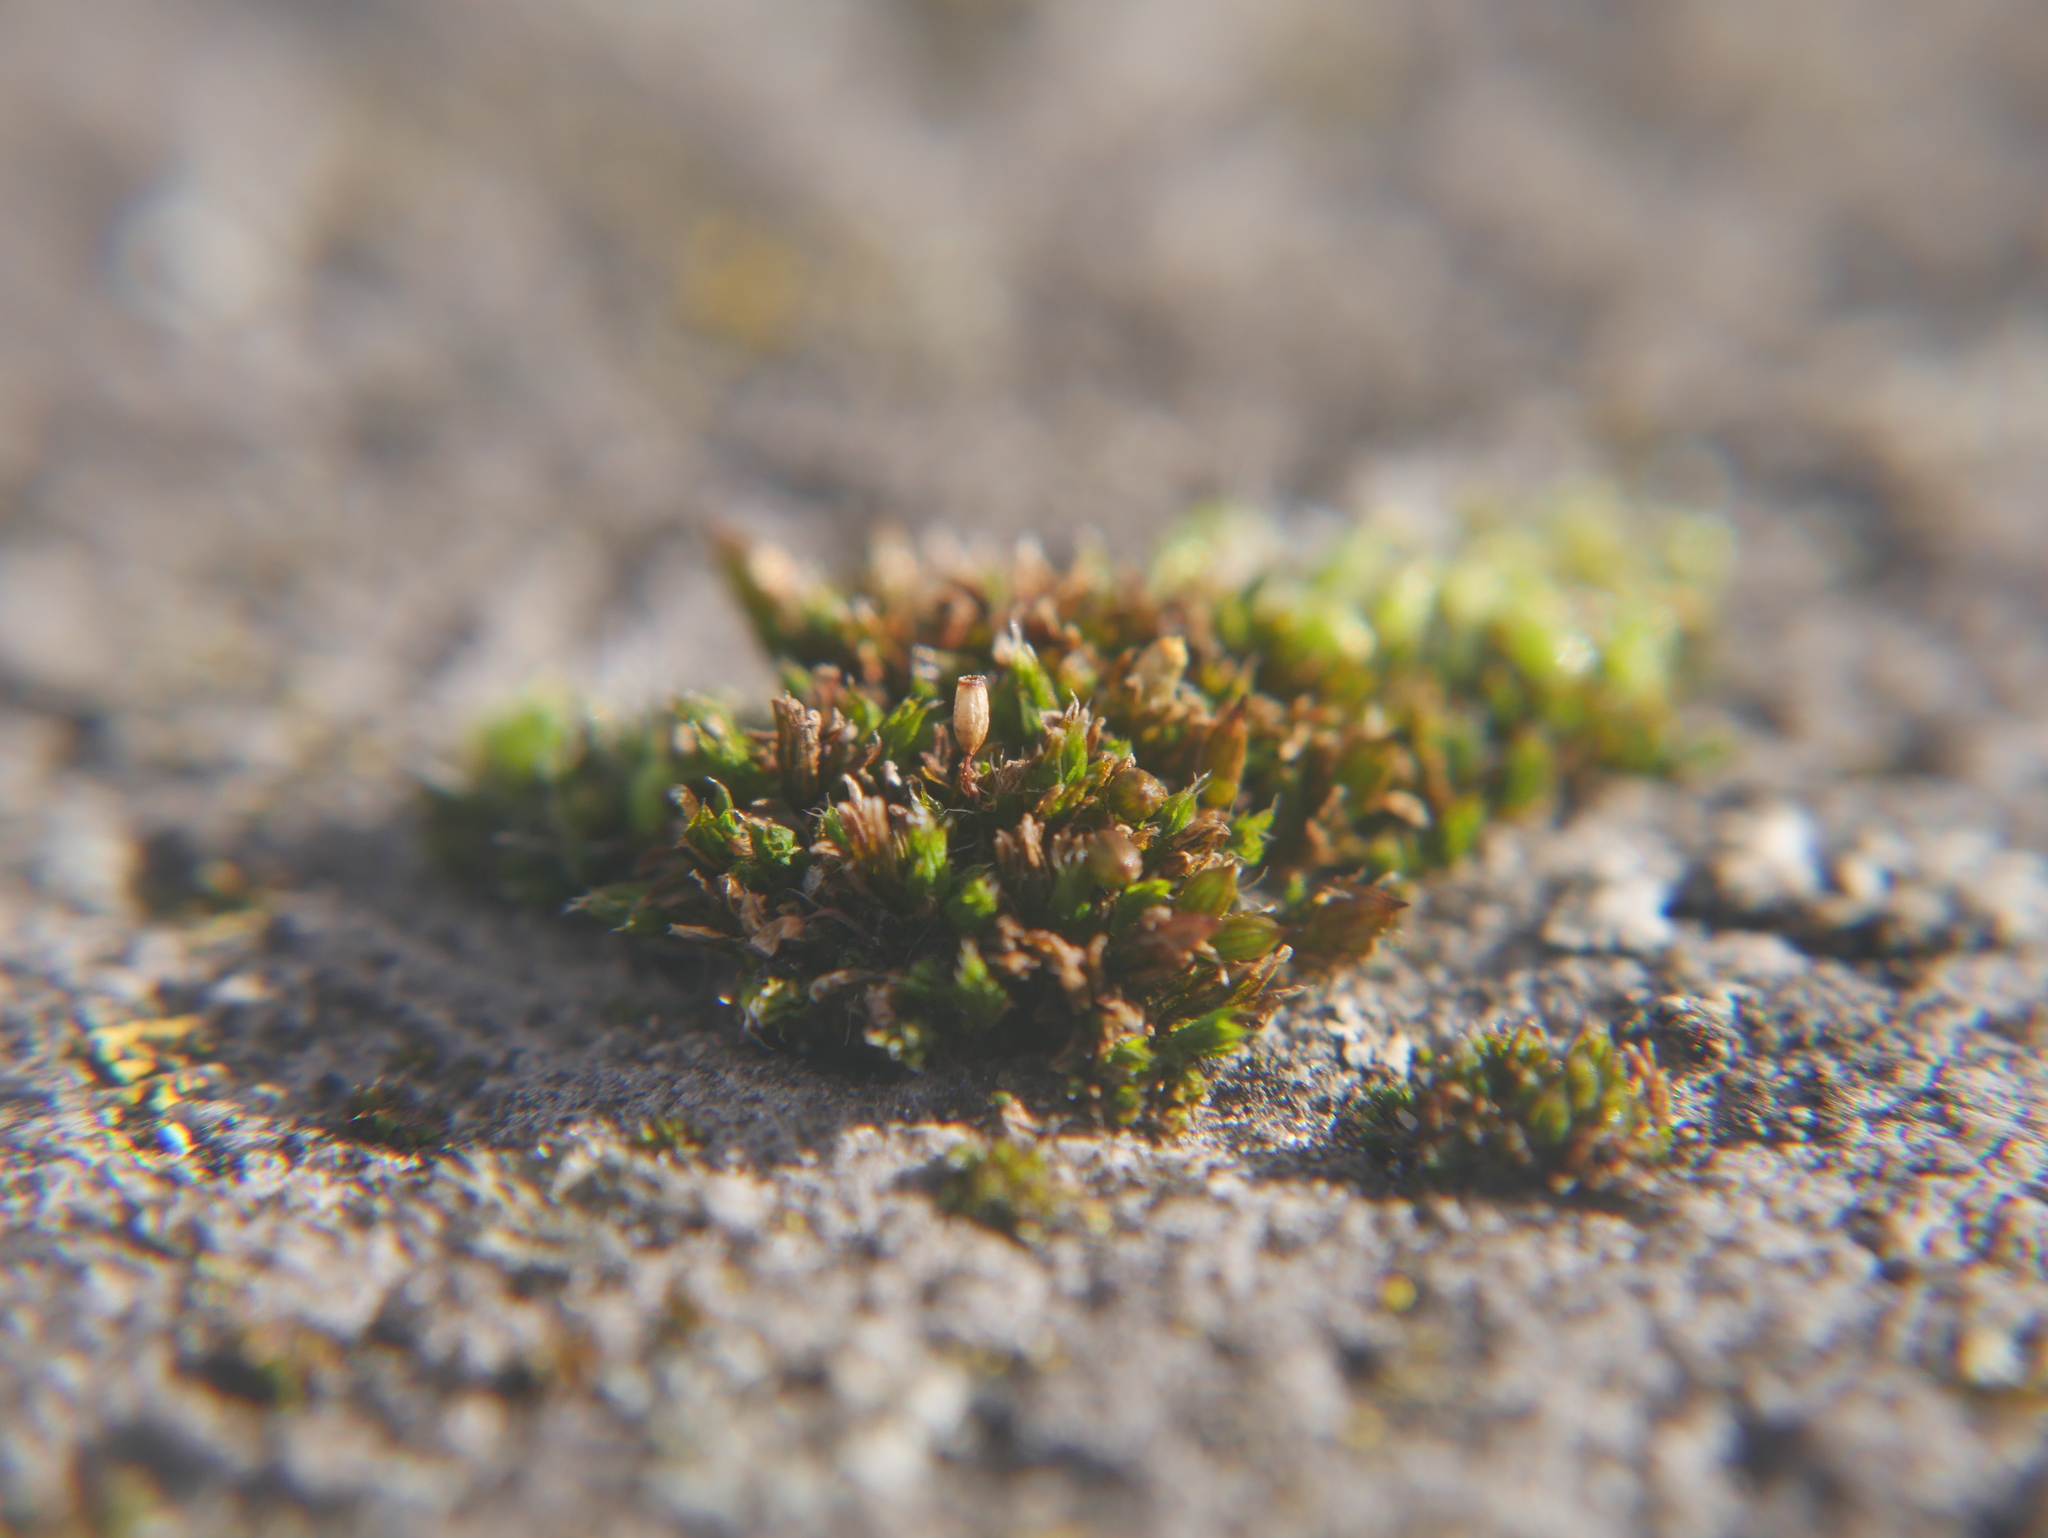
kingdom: Plantae
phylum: Bryophyta
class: Bryopsida
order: Orthotrichales
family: Orthotrichaceae
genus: Orthotrichum
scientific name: Orthotrichum diaphanum
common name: White-tipped bristle-moss
